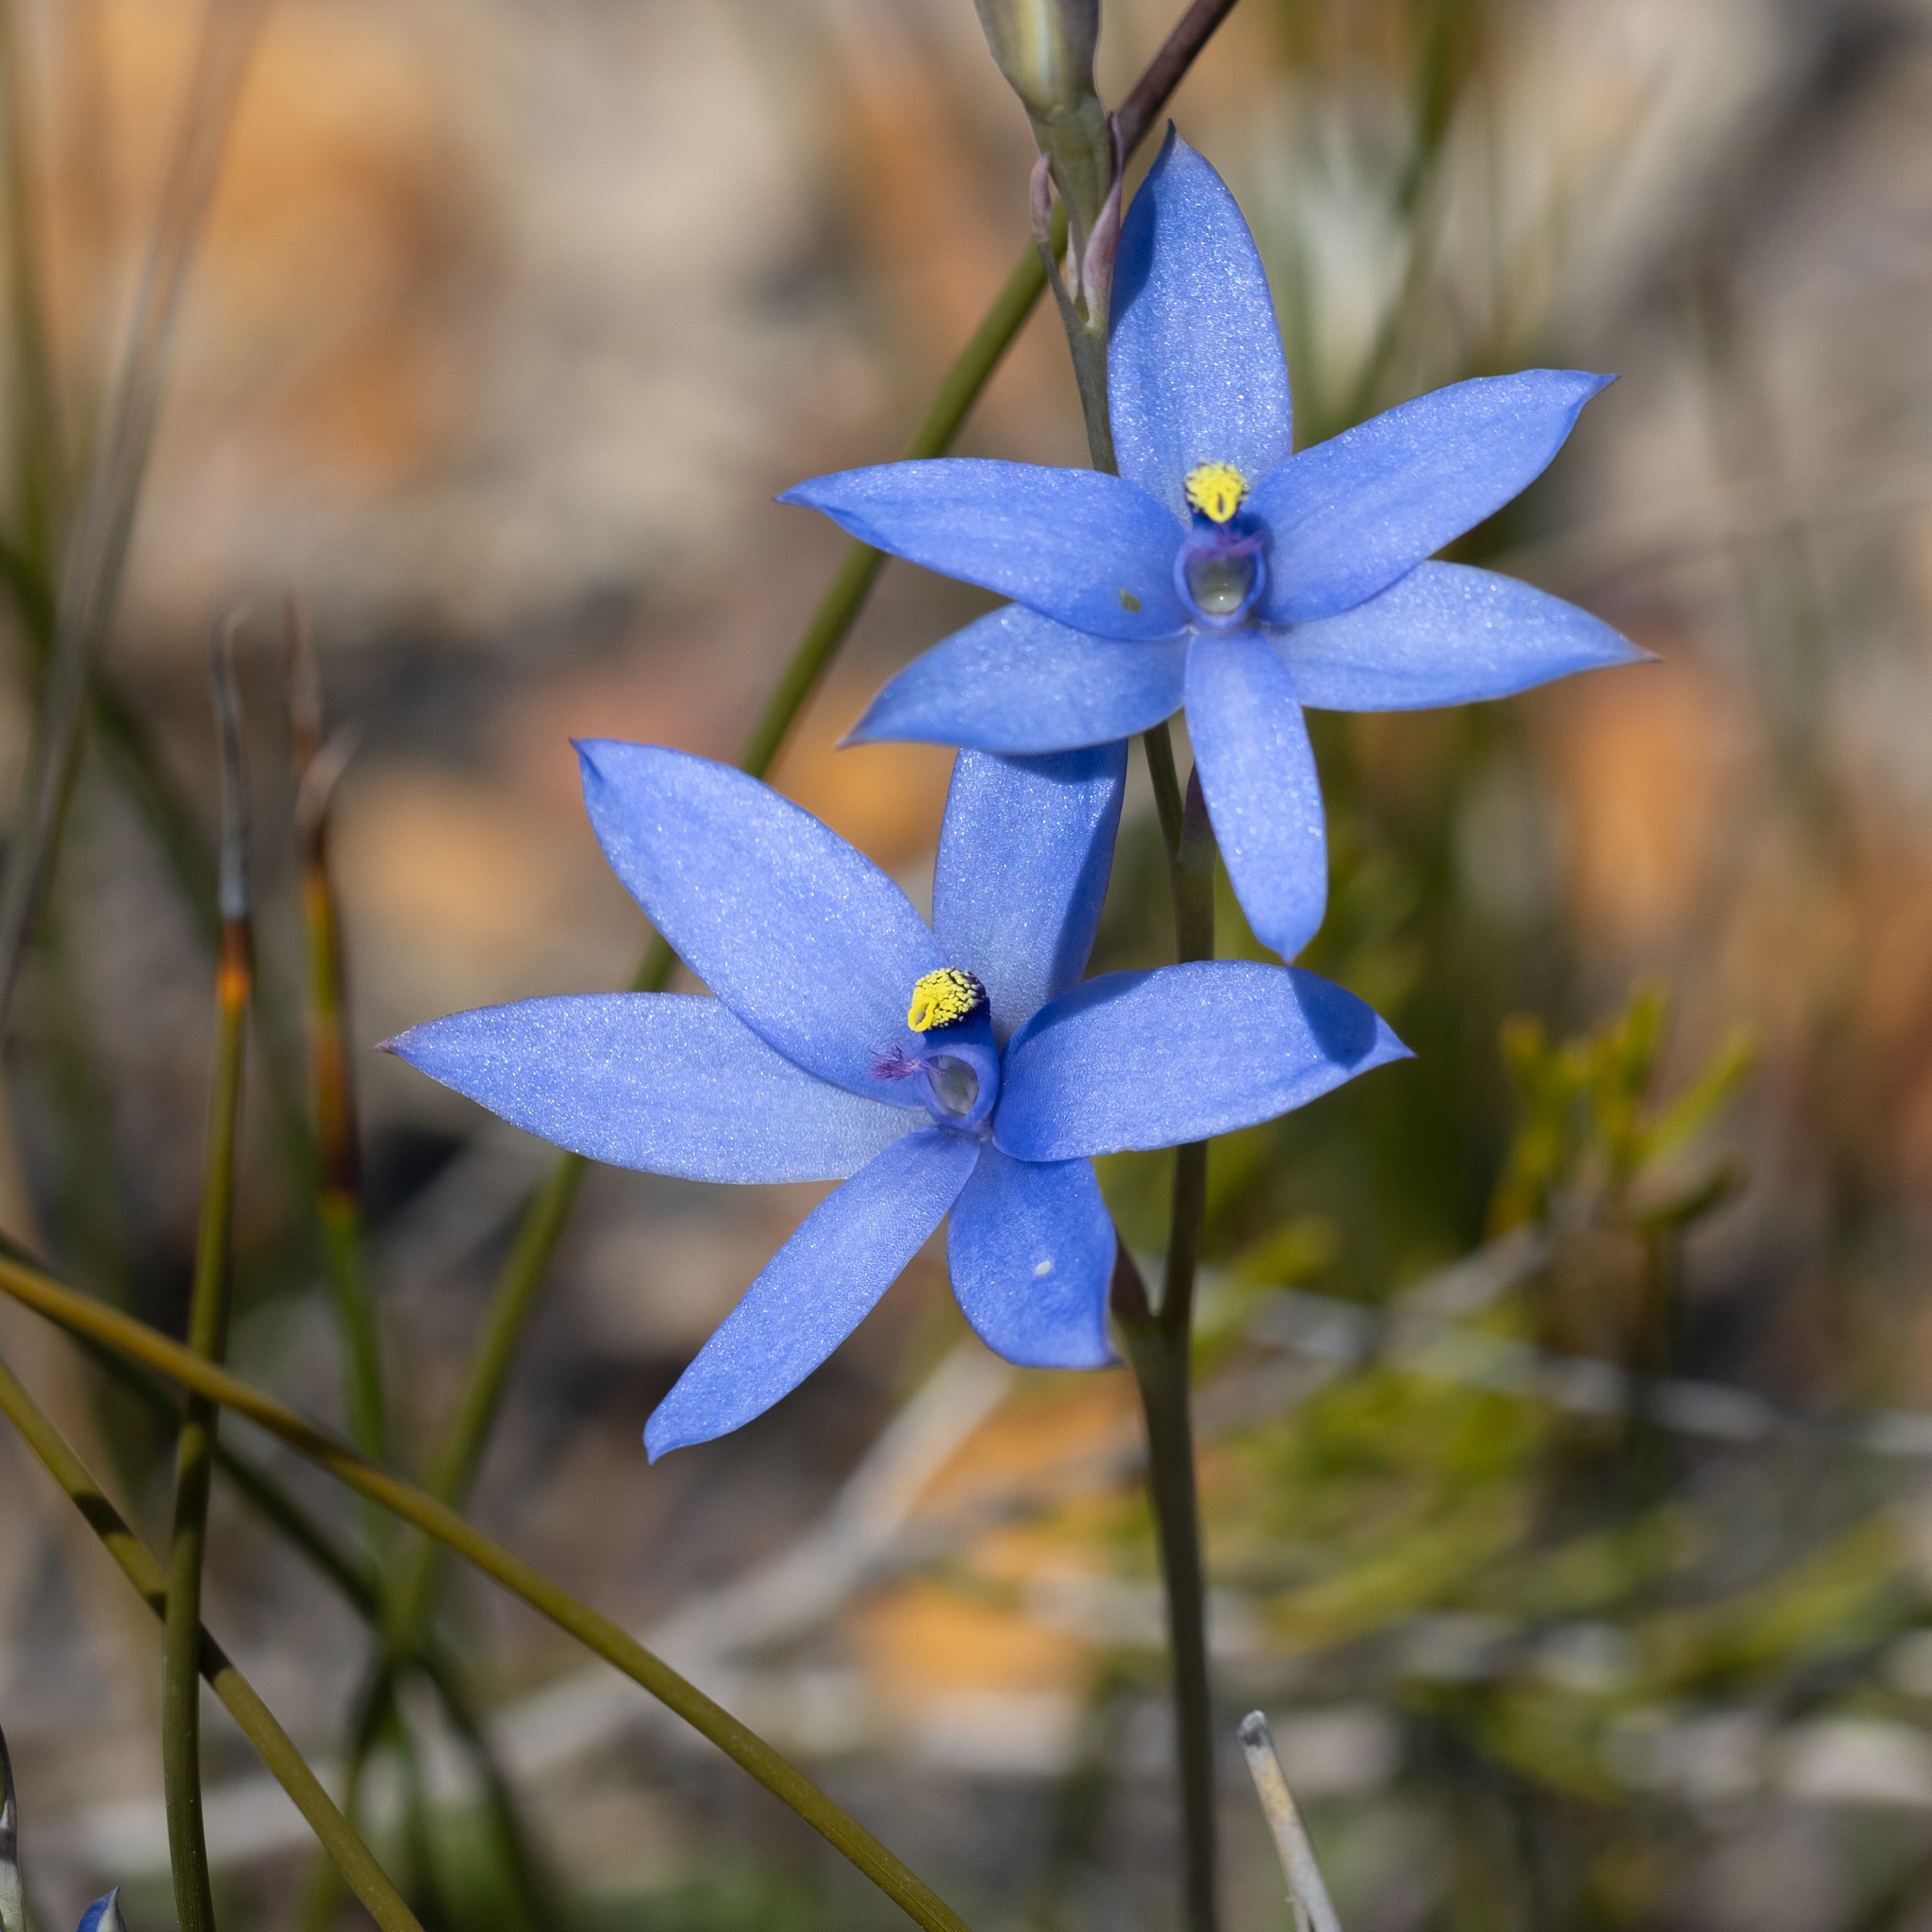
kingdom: Plantae
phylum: Tracheophyta
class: Liliopsida
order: Asparagales
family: Orchidaceae
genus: Thelymitra
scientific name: Thelymitra crinita
